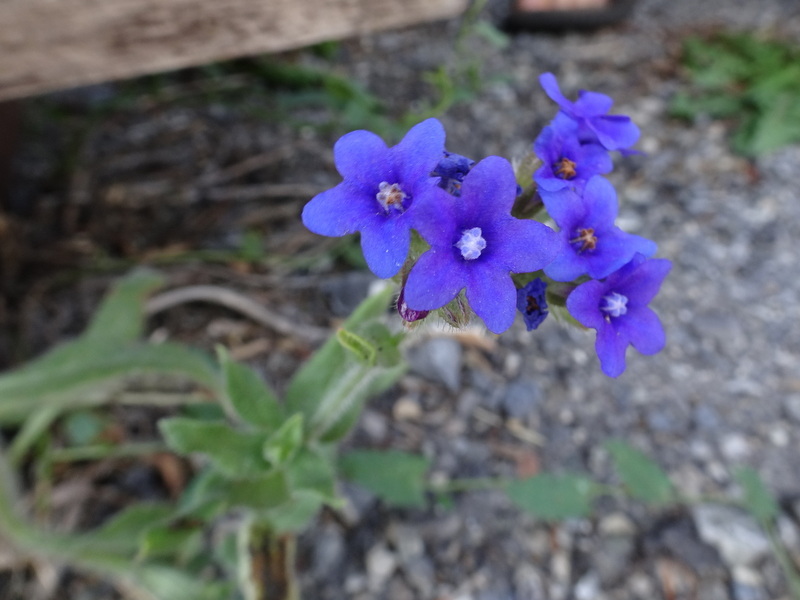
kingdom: Plantae
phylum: Tracheophyta
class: Magnoliopsida
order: Boraginales
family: Boraginaceae
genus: Anchusa
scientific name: Anchusa officinalis
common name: Alkanet
